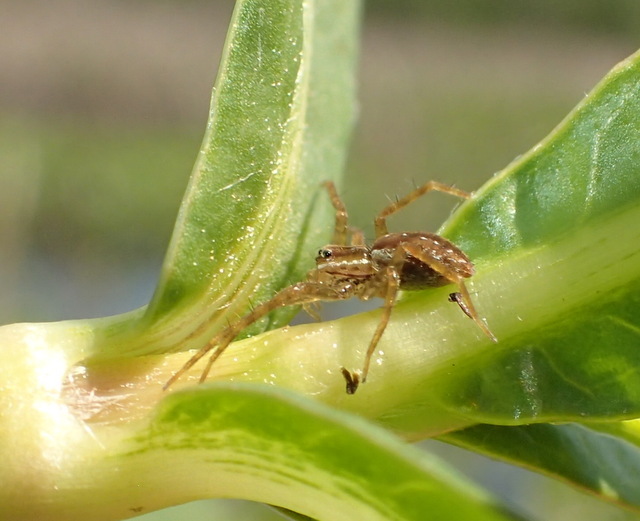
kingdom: Animalia
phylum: Arthropoda
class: Arachnida
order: Araneae
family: Pisauridae
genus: Dolomedes
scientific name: Dolomedes triton
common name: Six-spotted fishing spider
